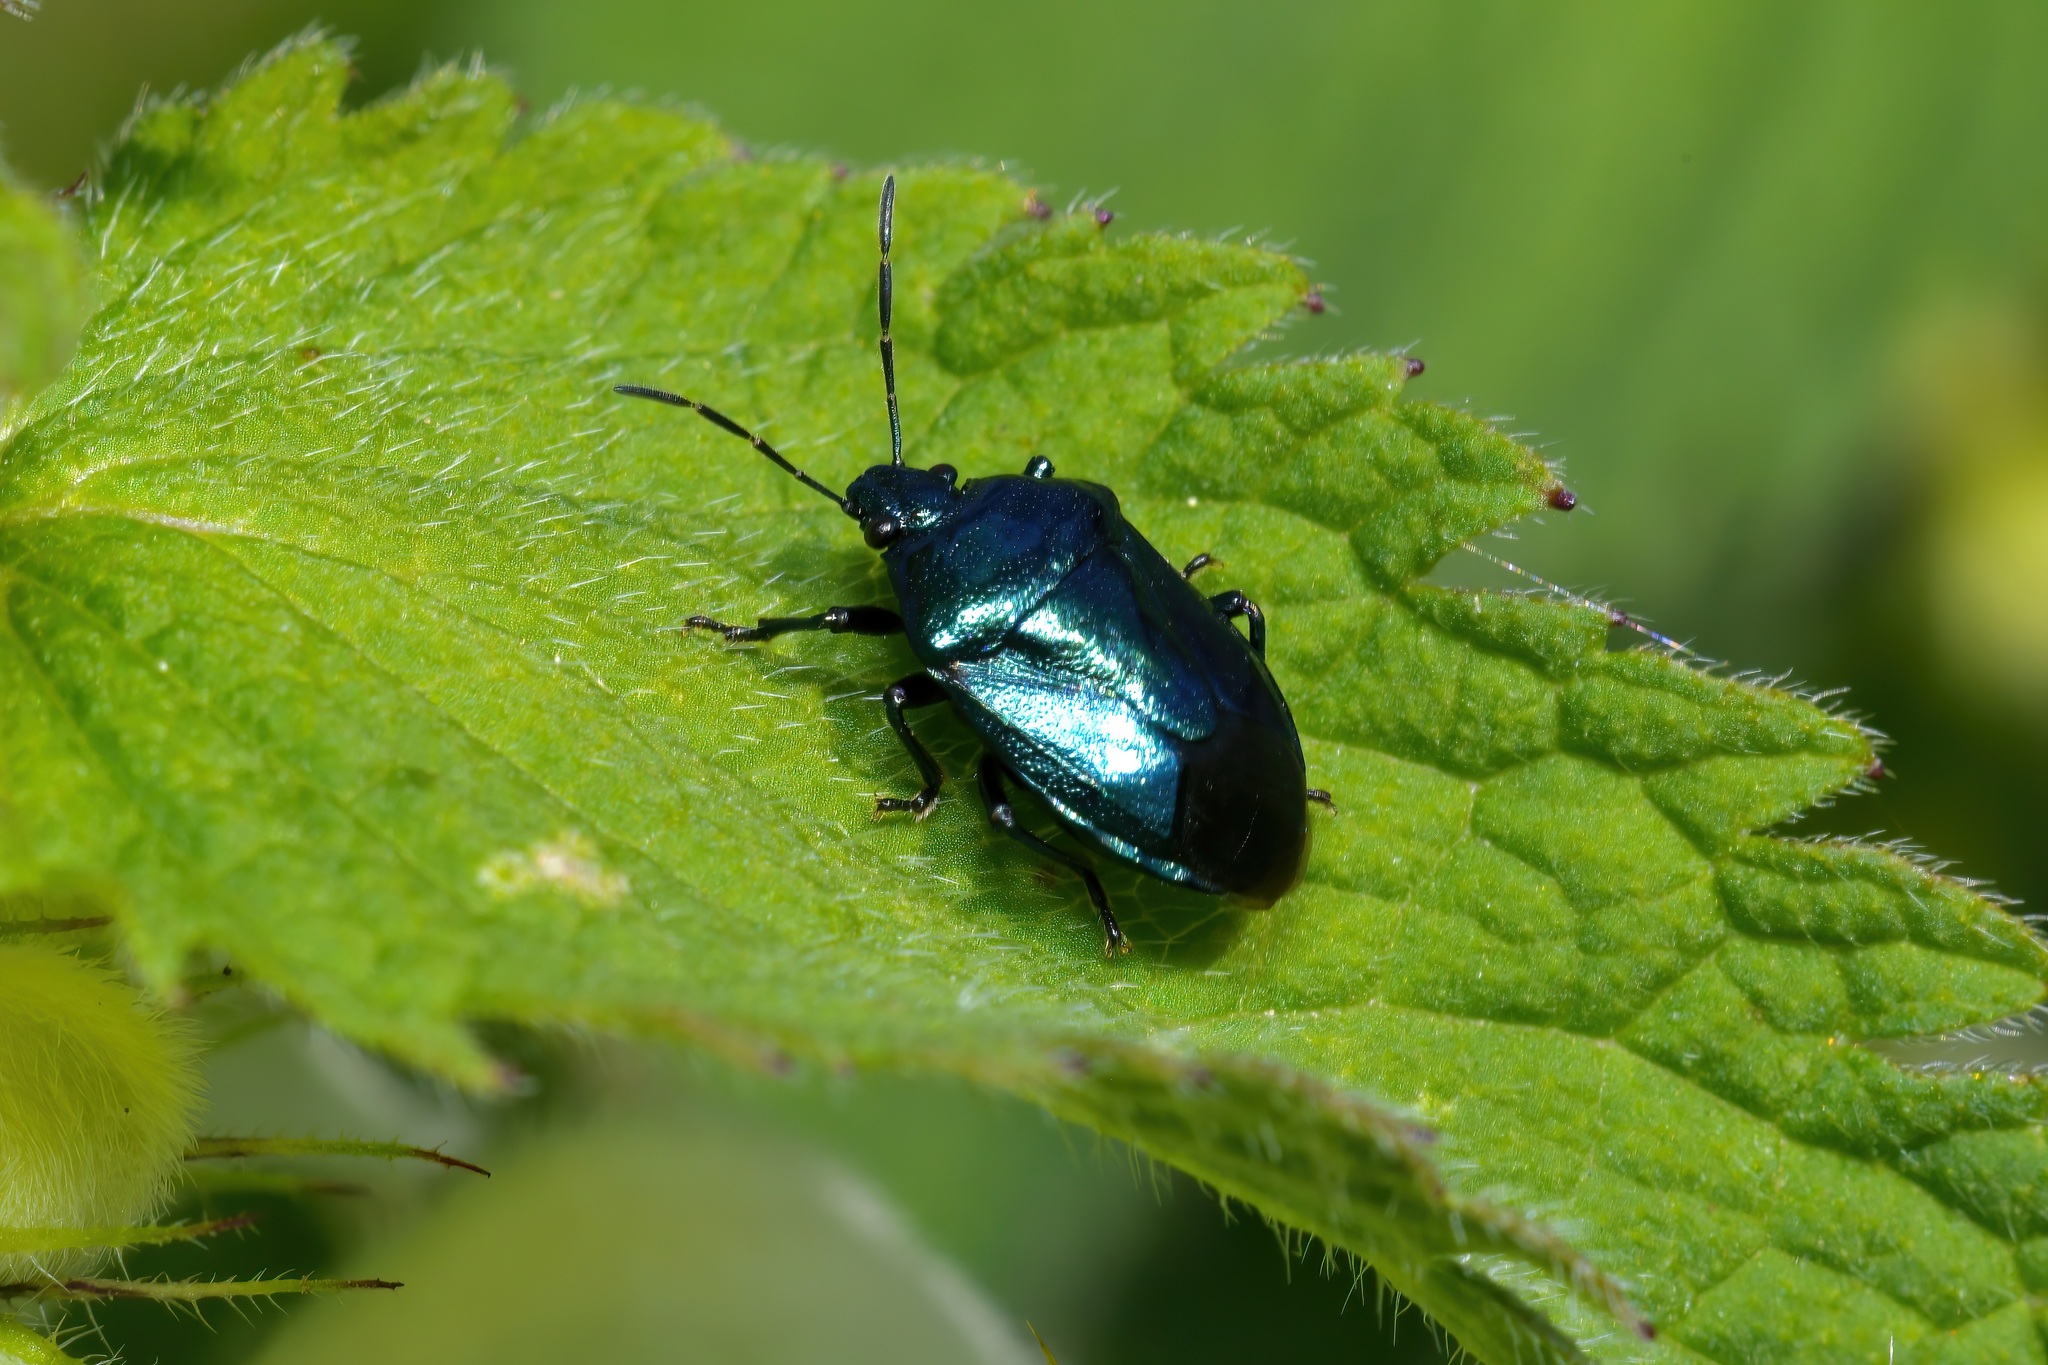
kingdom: Animalia
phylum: Arthropoda
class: Insecta
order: Hemiptera
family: Pentatomidae
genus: Zicrona
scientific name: Zicrona caerulea
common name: Blue shieldbug
